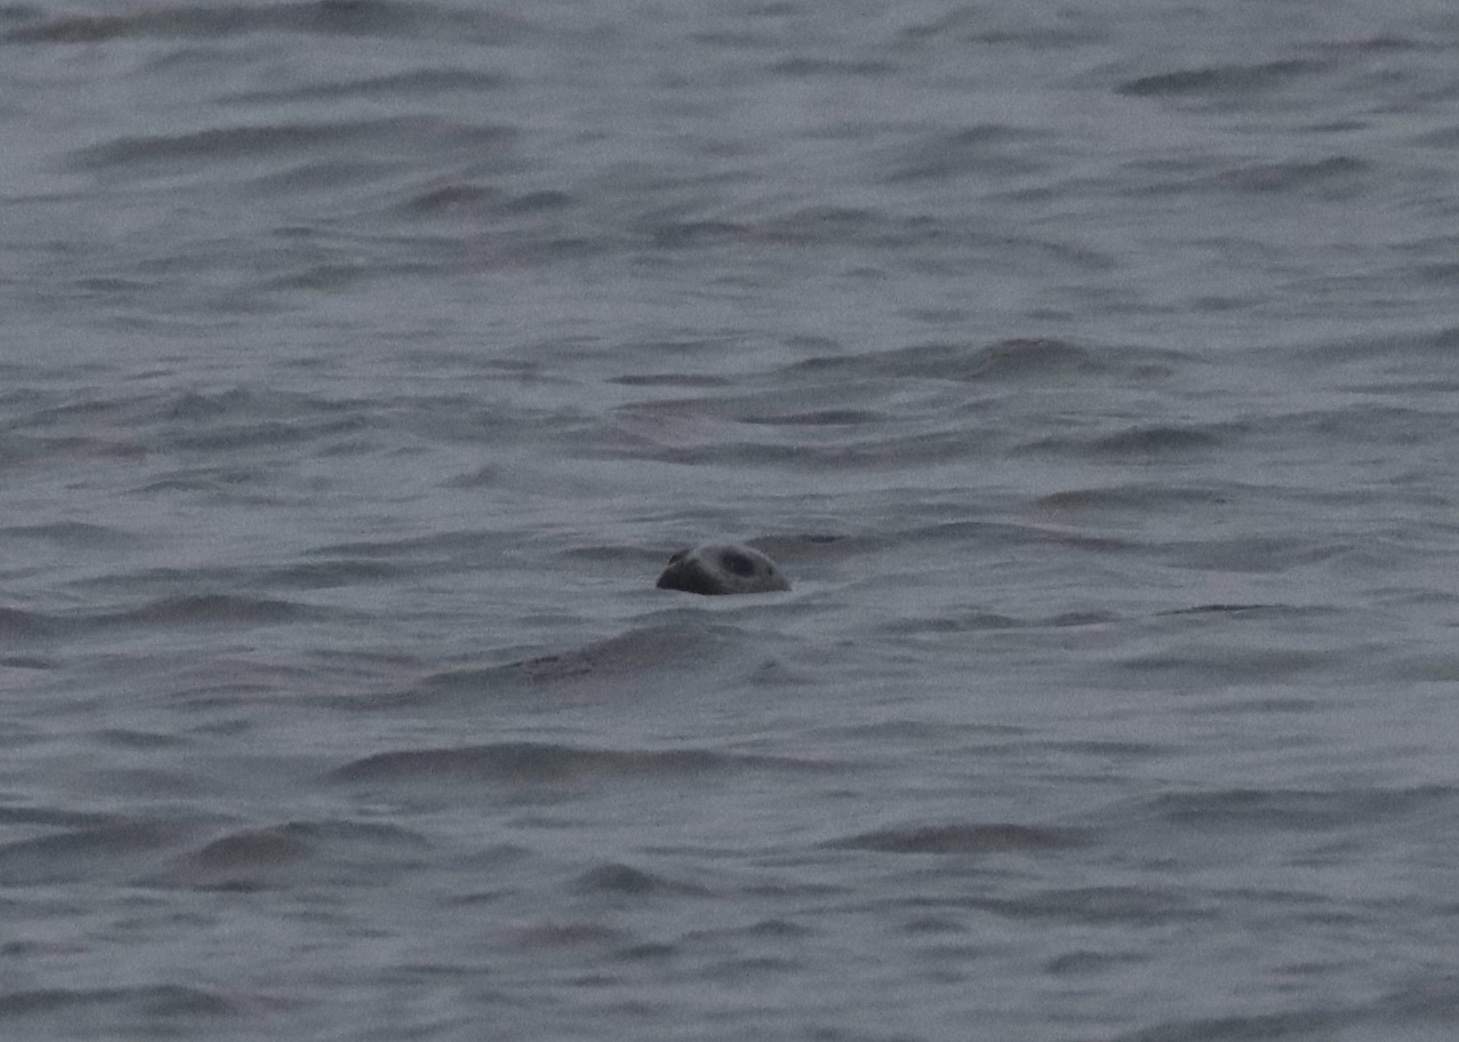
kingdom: Animalia
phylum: Chordata
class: Mammalia
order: Carnivora
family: Phocidae
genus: Phoca
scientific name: Phoca vitulina
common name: Harbor seal
